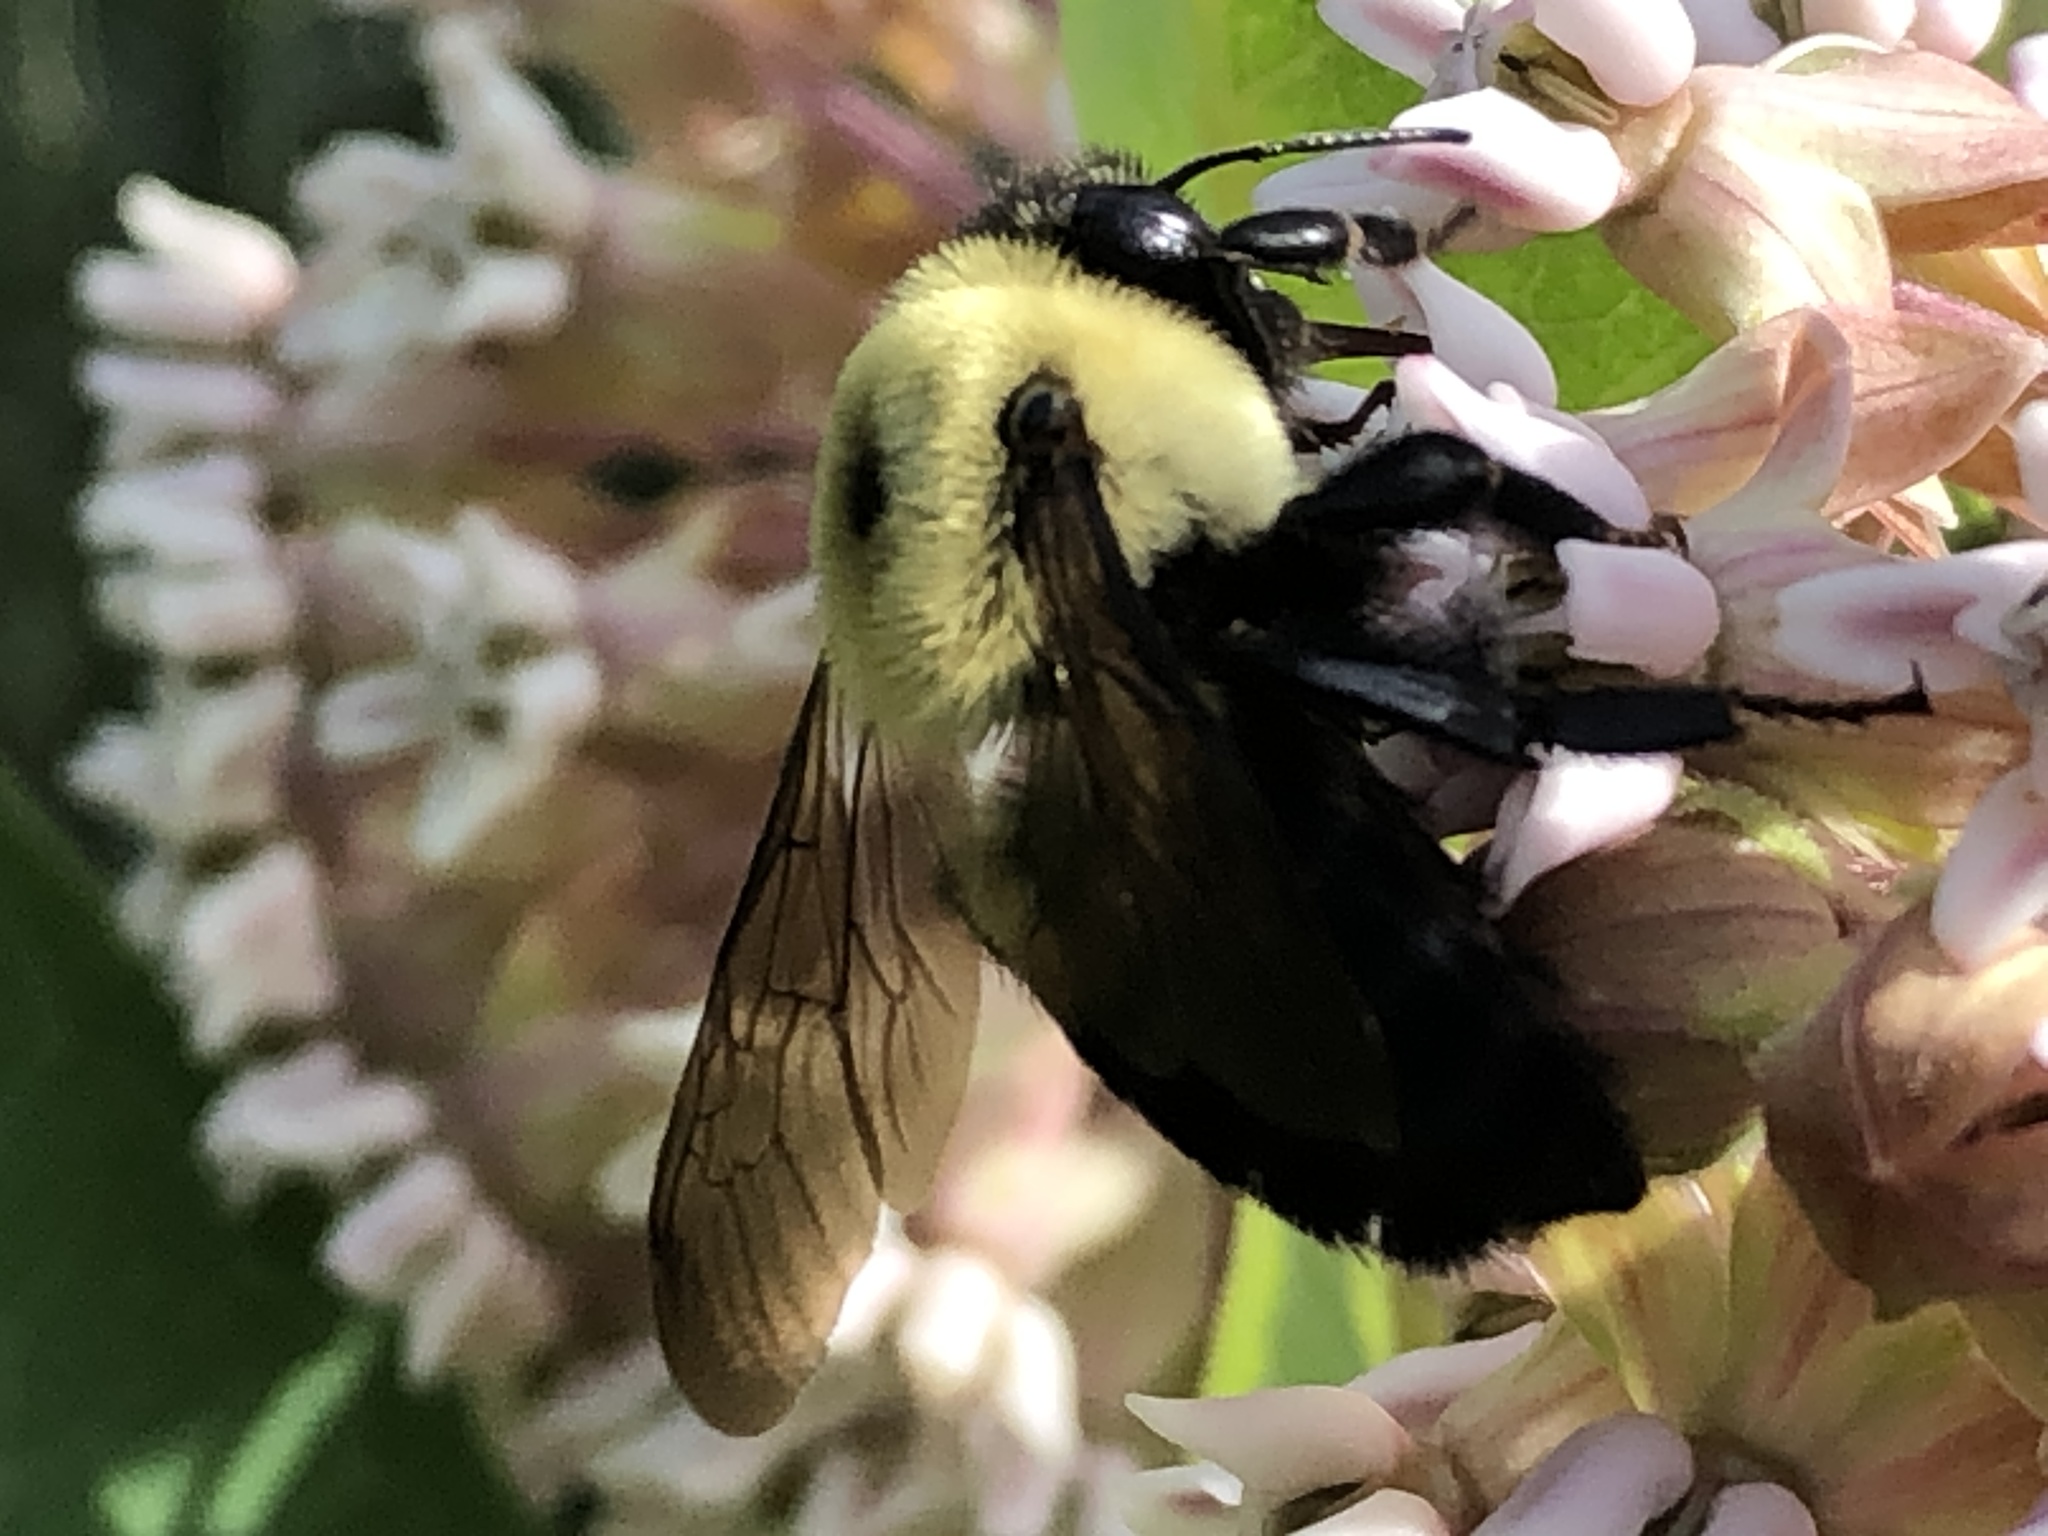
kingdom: Animalia
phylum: Arthropoda
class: Insecta
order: Hymenoptera
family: Apidae
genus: Bombus
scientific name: Bombus griseocollis
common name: Brown-belted bumble bee
